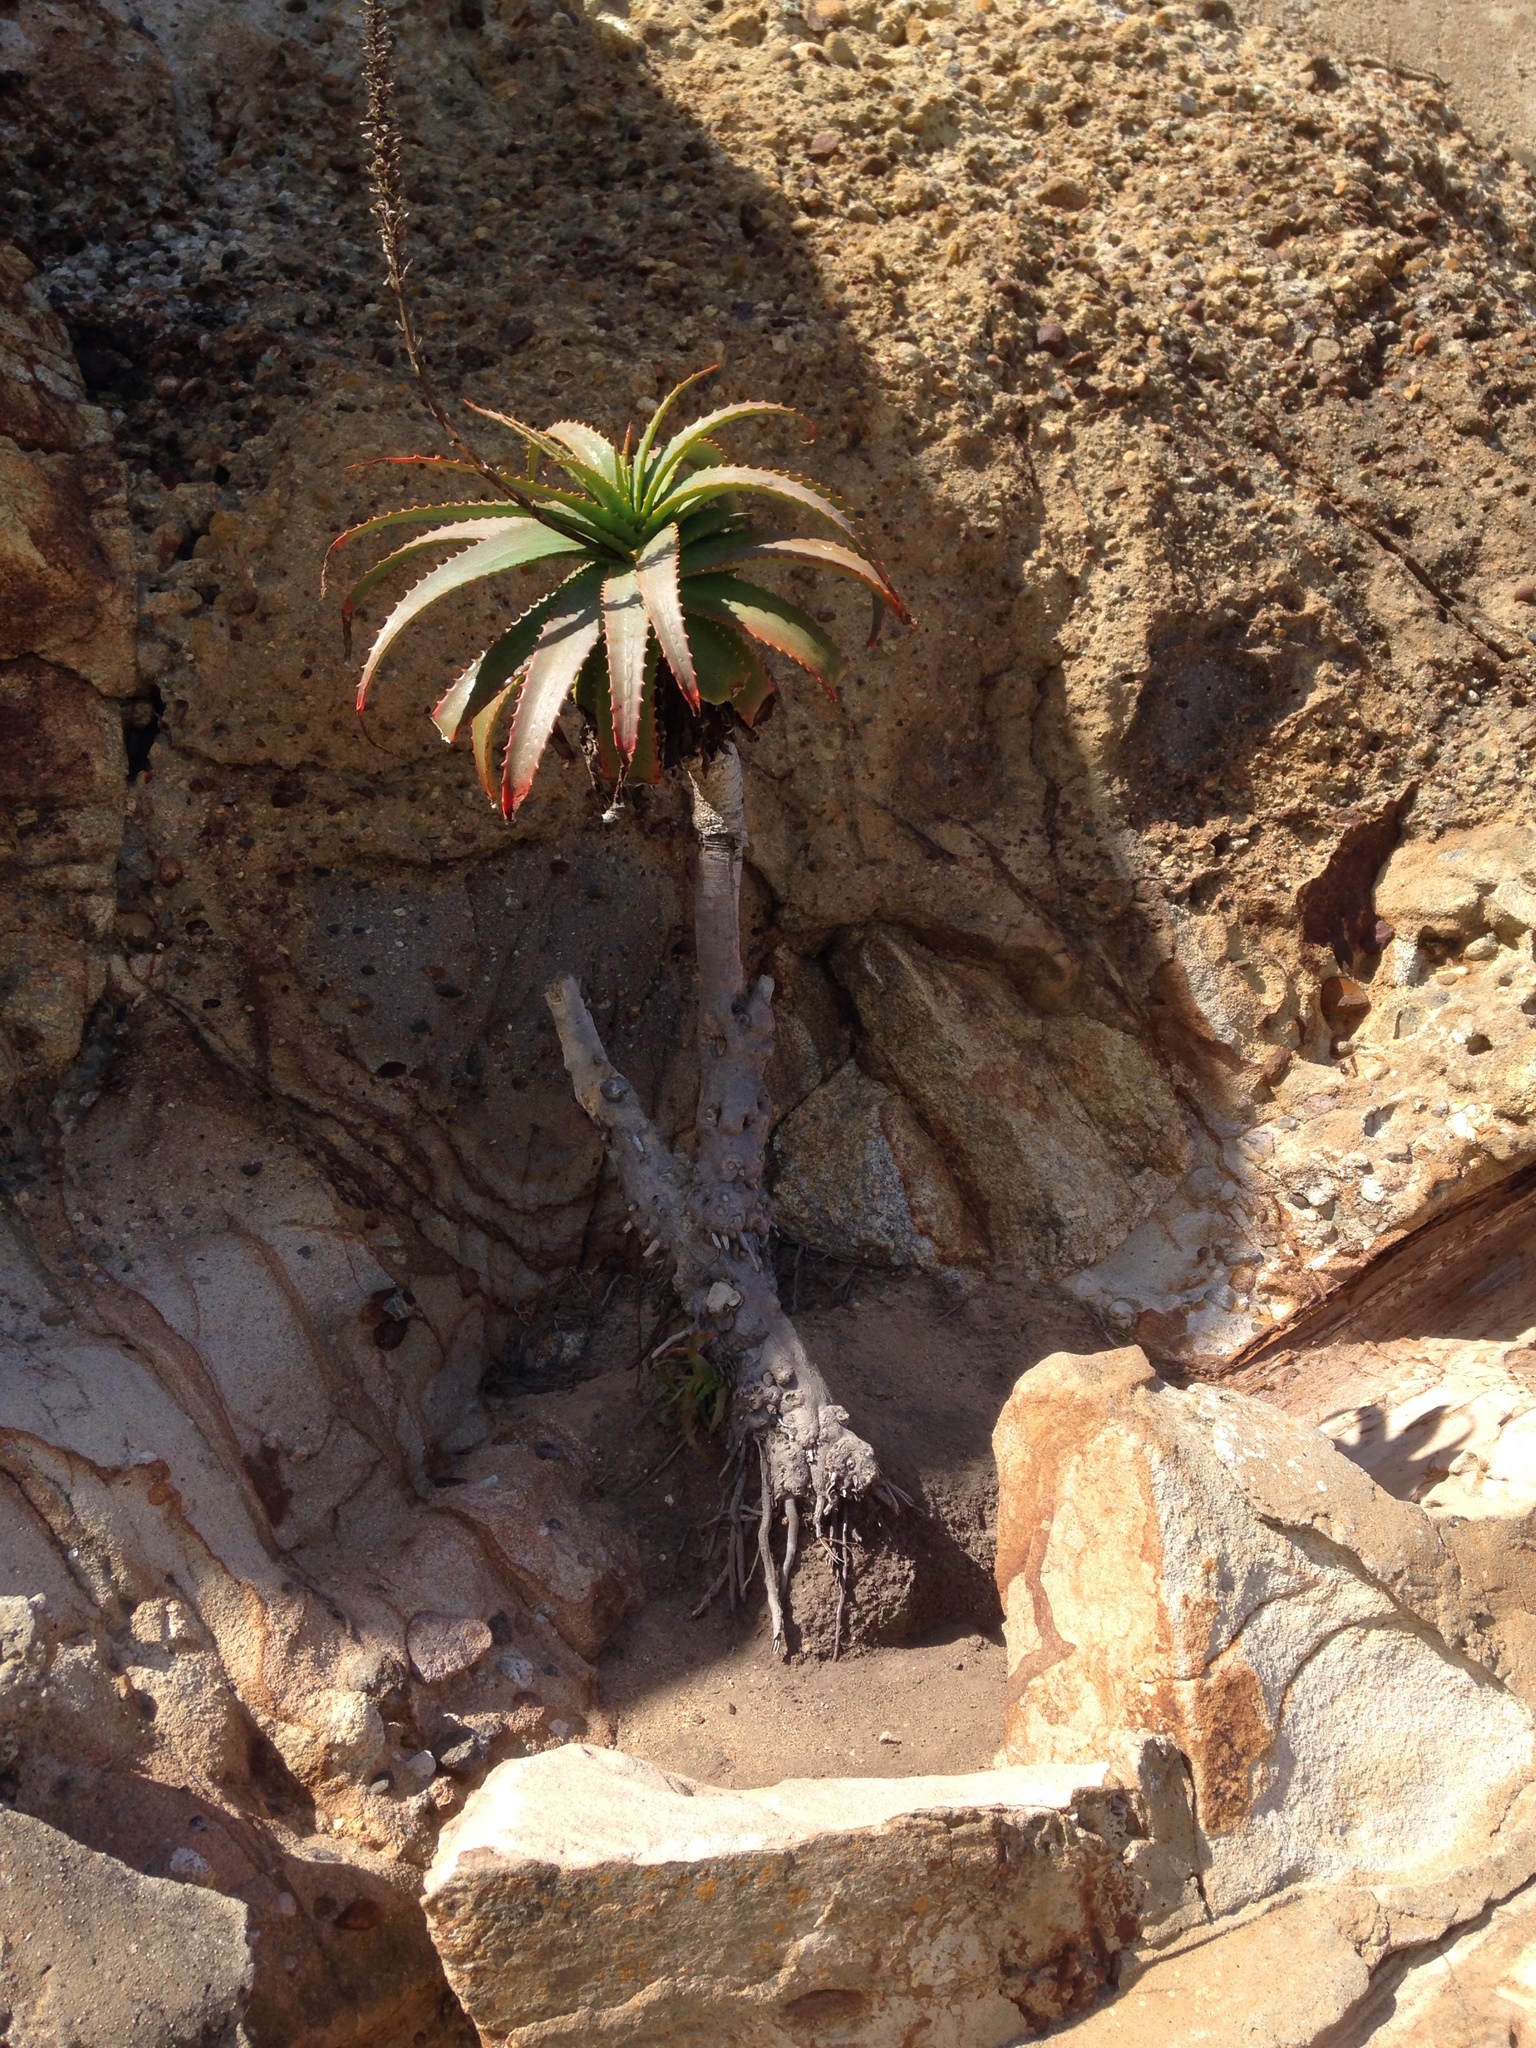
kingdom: Plantae
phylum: Tracheophyta
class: Liliopsida
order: Asparagales
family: Asphodelaceae
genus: Aloe
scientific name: Aloe arborescens
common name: Candelabra aloe
